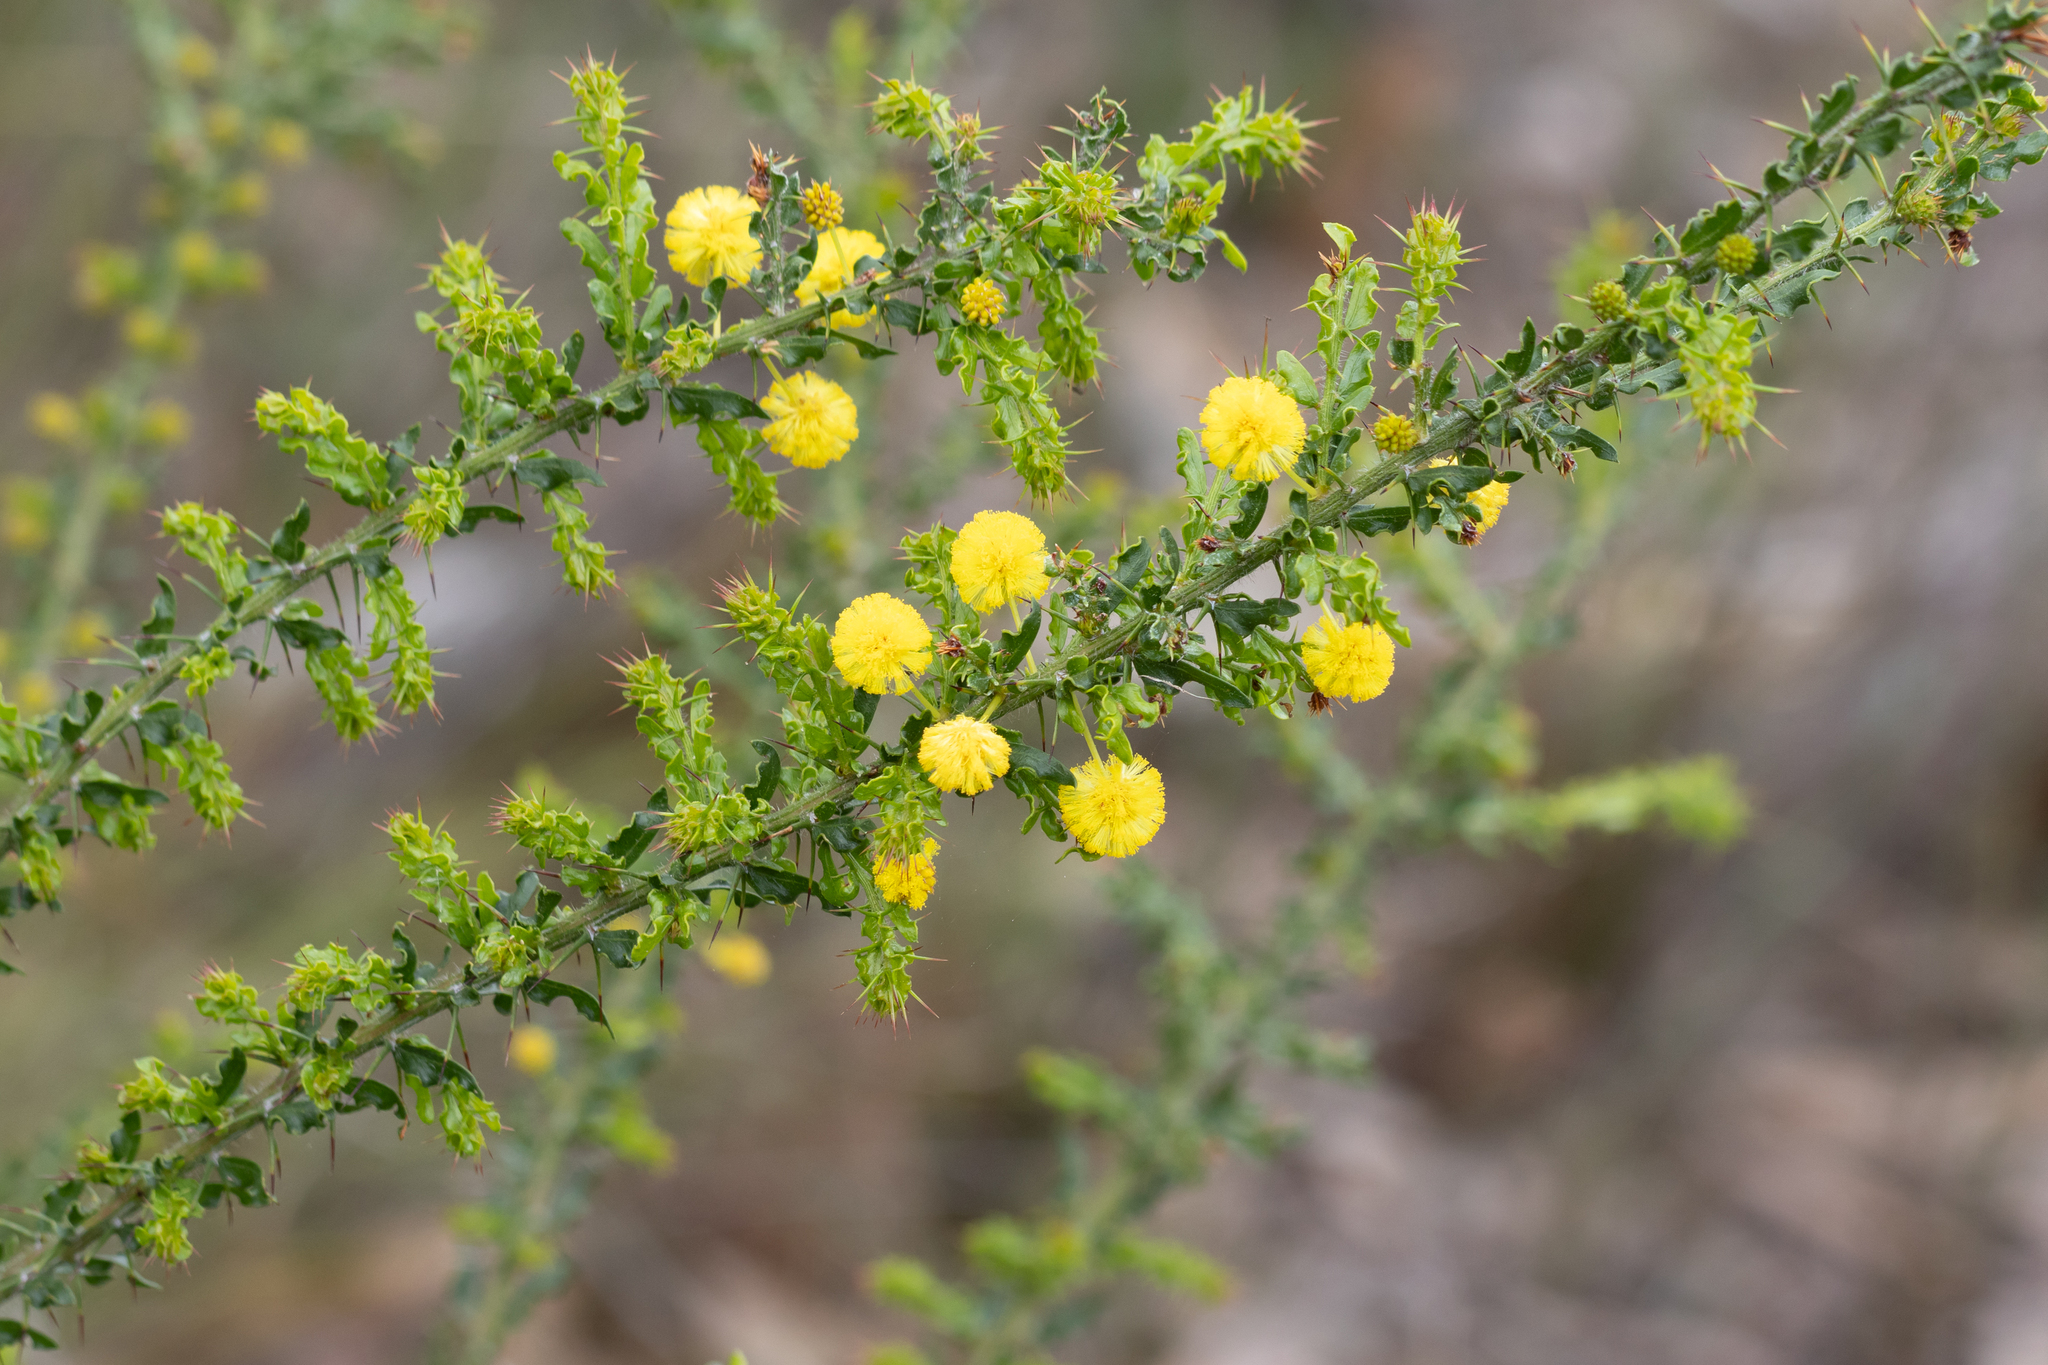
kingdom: Plantae
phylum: Tracheophyta
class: Magnoliopsida
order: Fabales
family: Fabaceae
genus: Acacia
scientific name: Acacia paradoxa
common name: Paradox acacia
